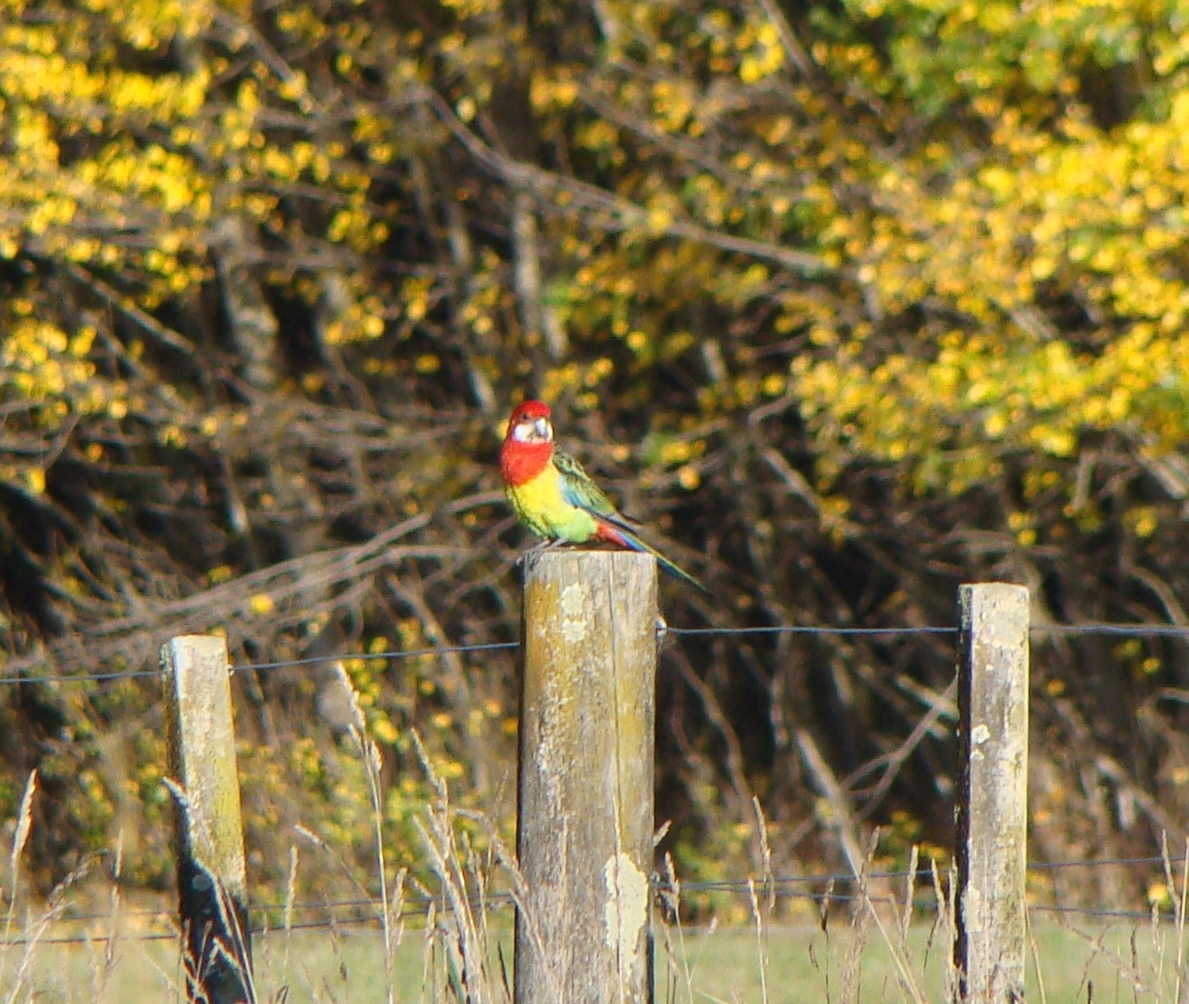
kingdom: Animalia
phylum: Chordata
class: Aves
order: Psittaciformes
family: Psittacidae
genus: Platycercus
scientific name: Platycercus eximius
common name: Eastern rosella
